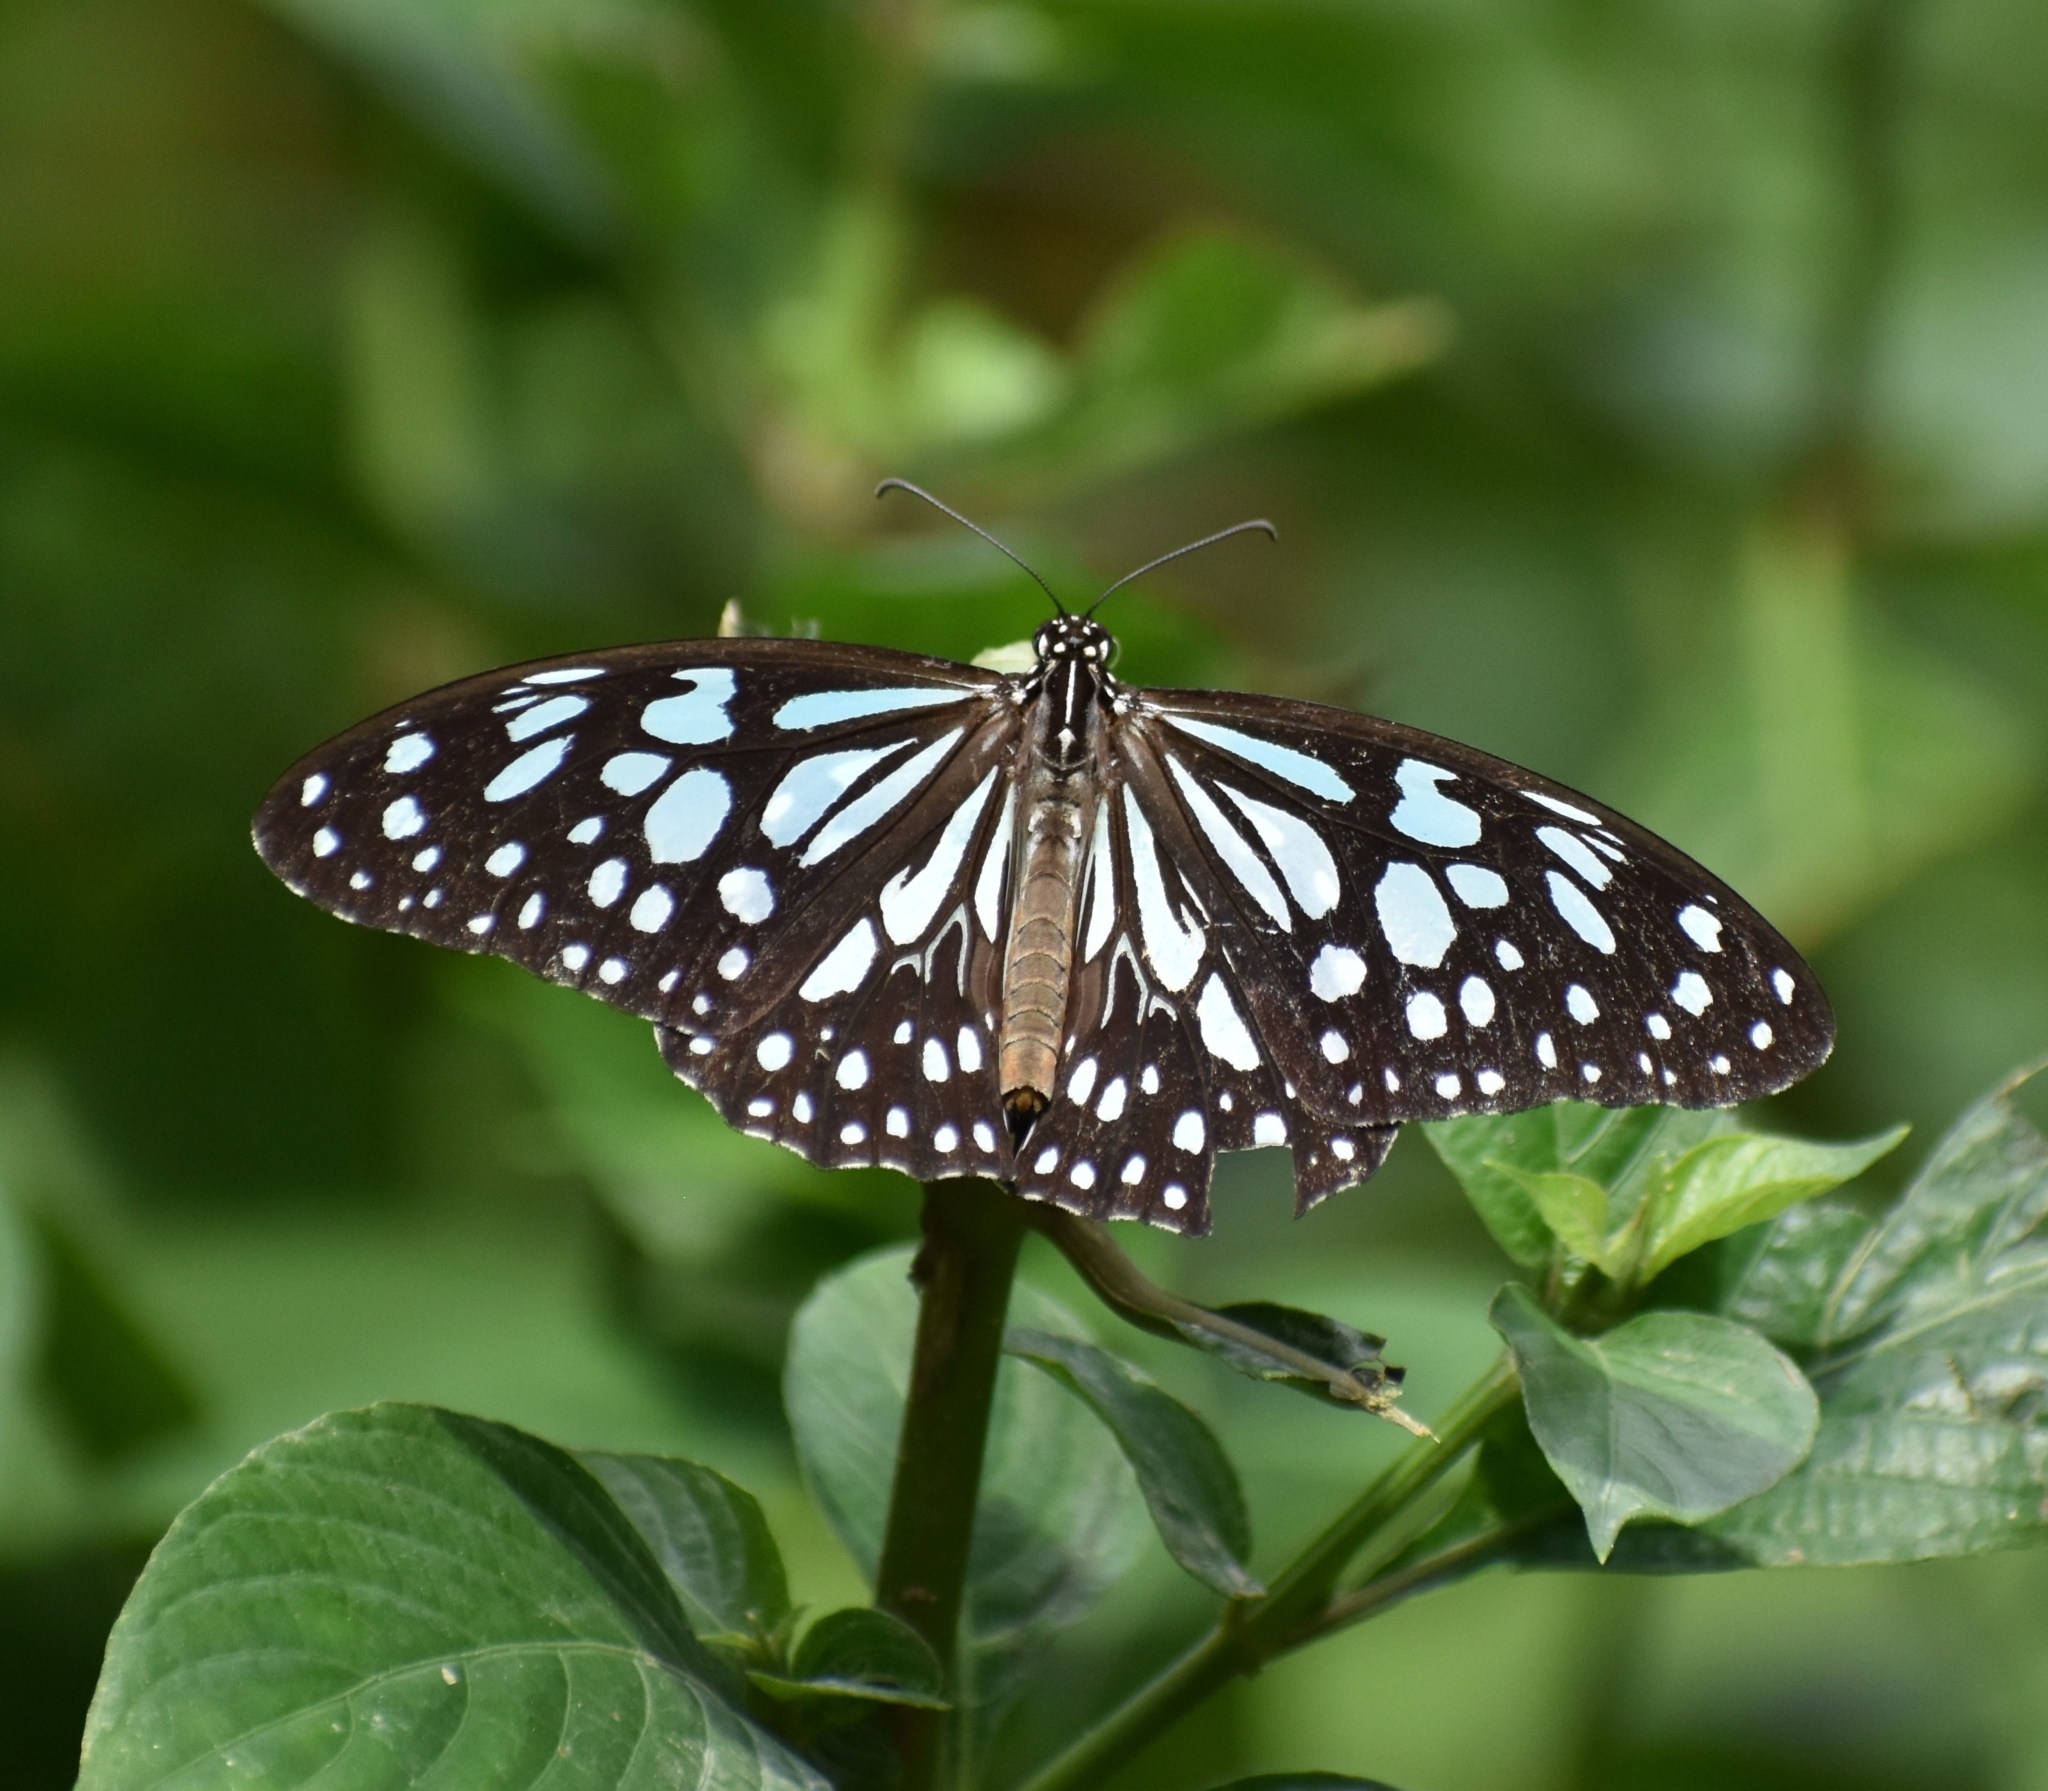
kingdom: Animalia
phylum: Arthropoda
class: Insecta
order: Lepidoptera
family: Nymphalidae
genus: Tirumala
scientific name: Tirumala limniace
